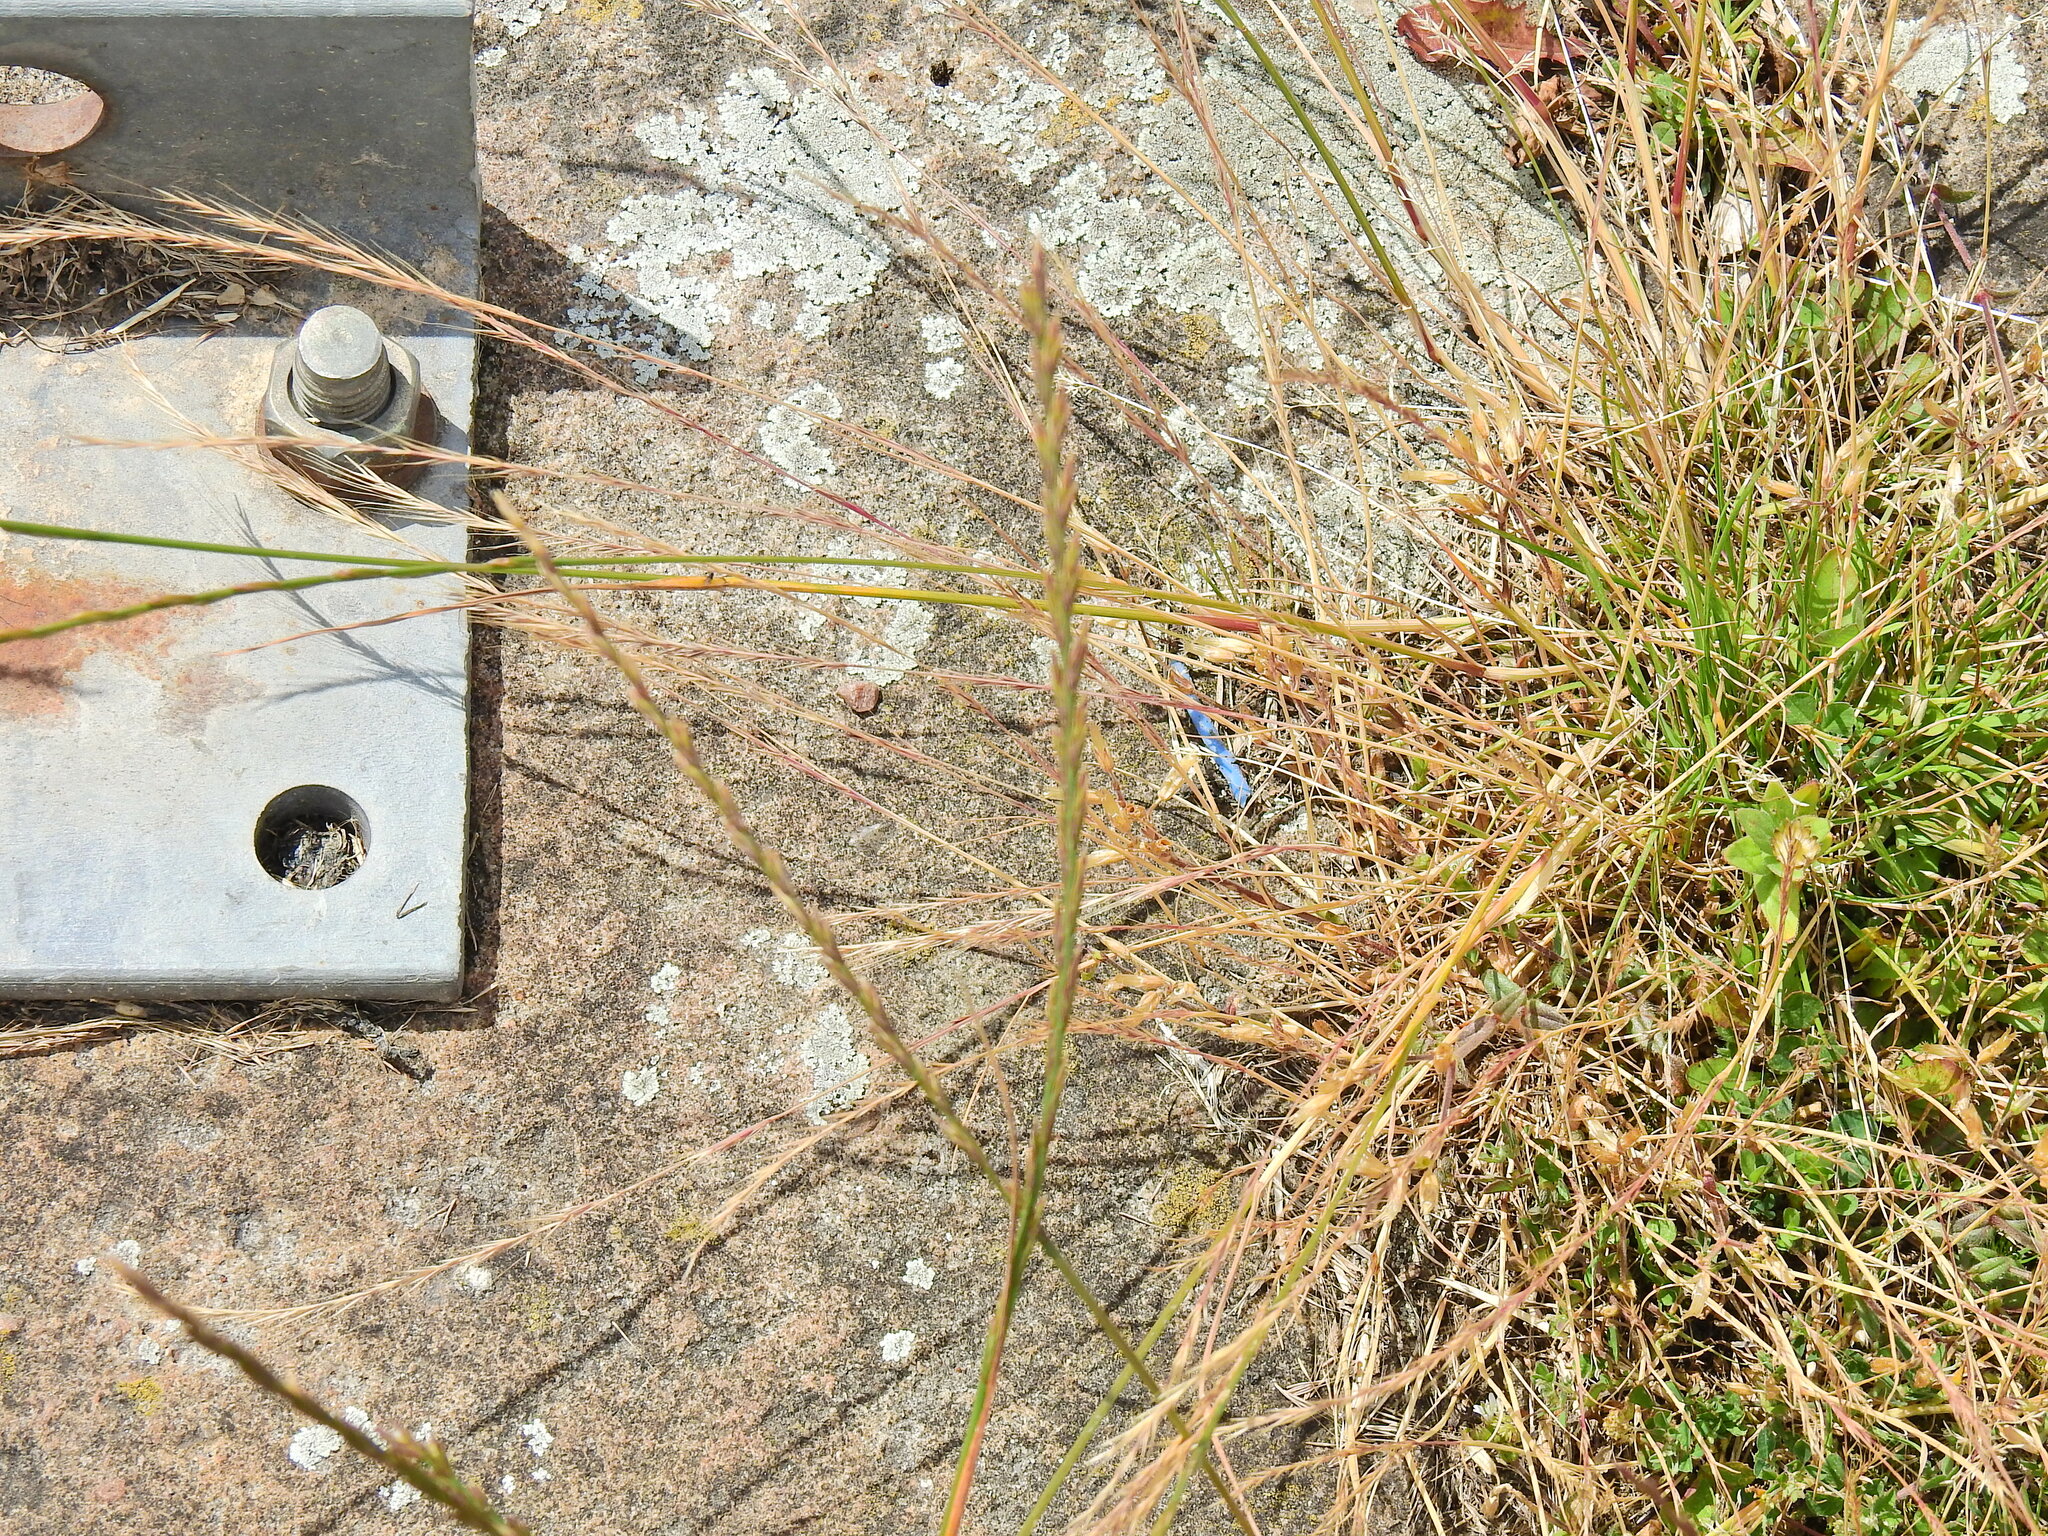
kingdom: Plantae
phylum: Tracheophyta
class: Liliopsida
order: Poales
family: Poaceae
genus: Lolium
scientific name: Lolium perenne
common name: Perennial ryegrass
